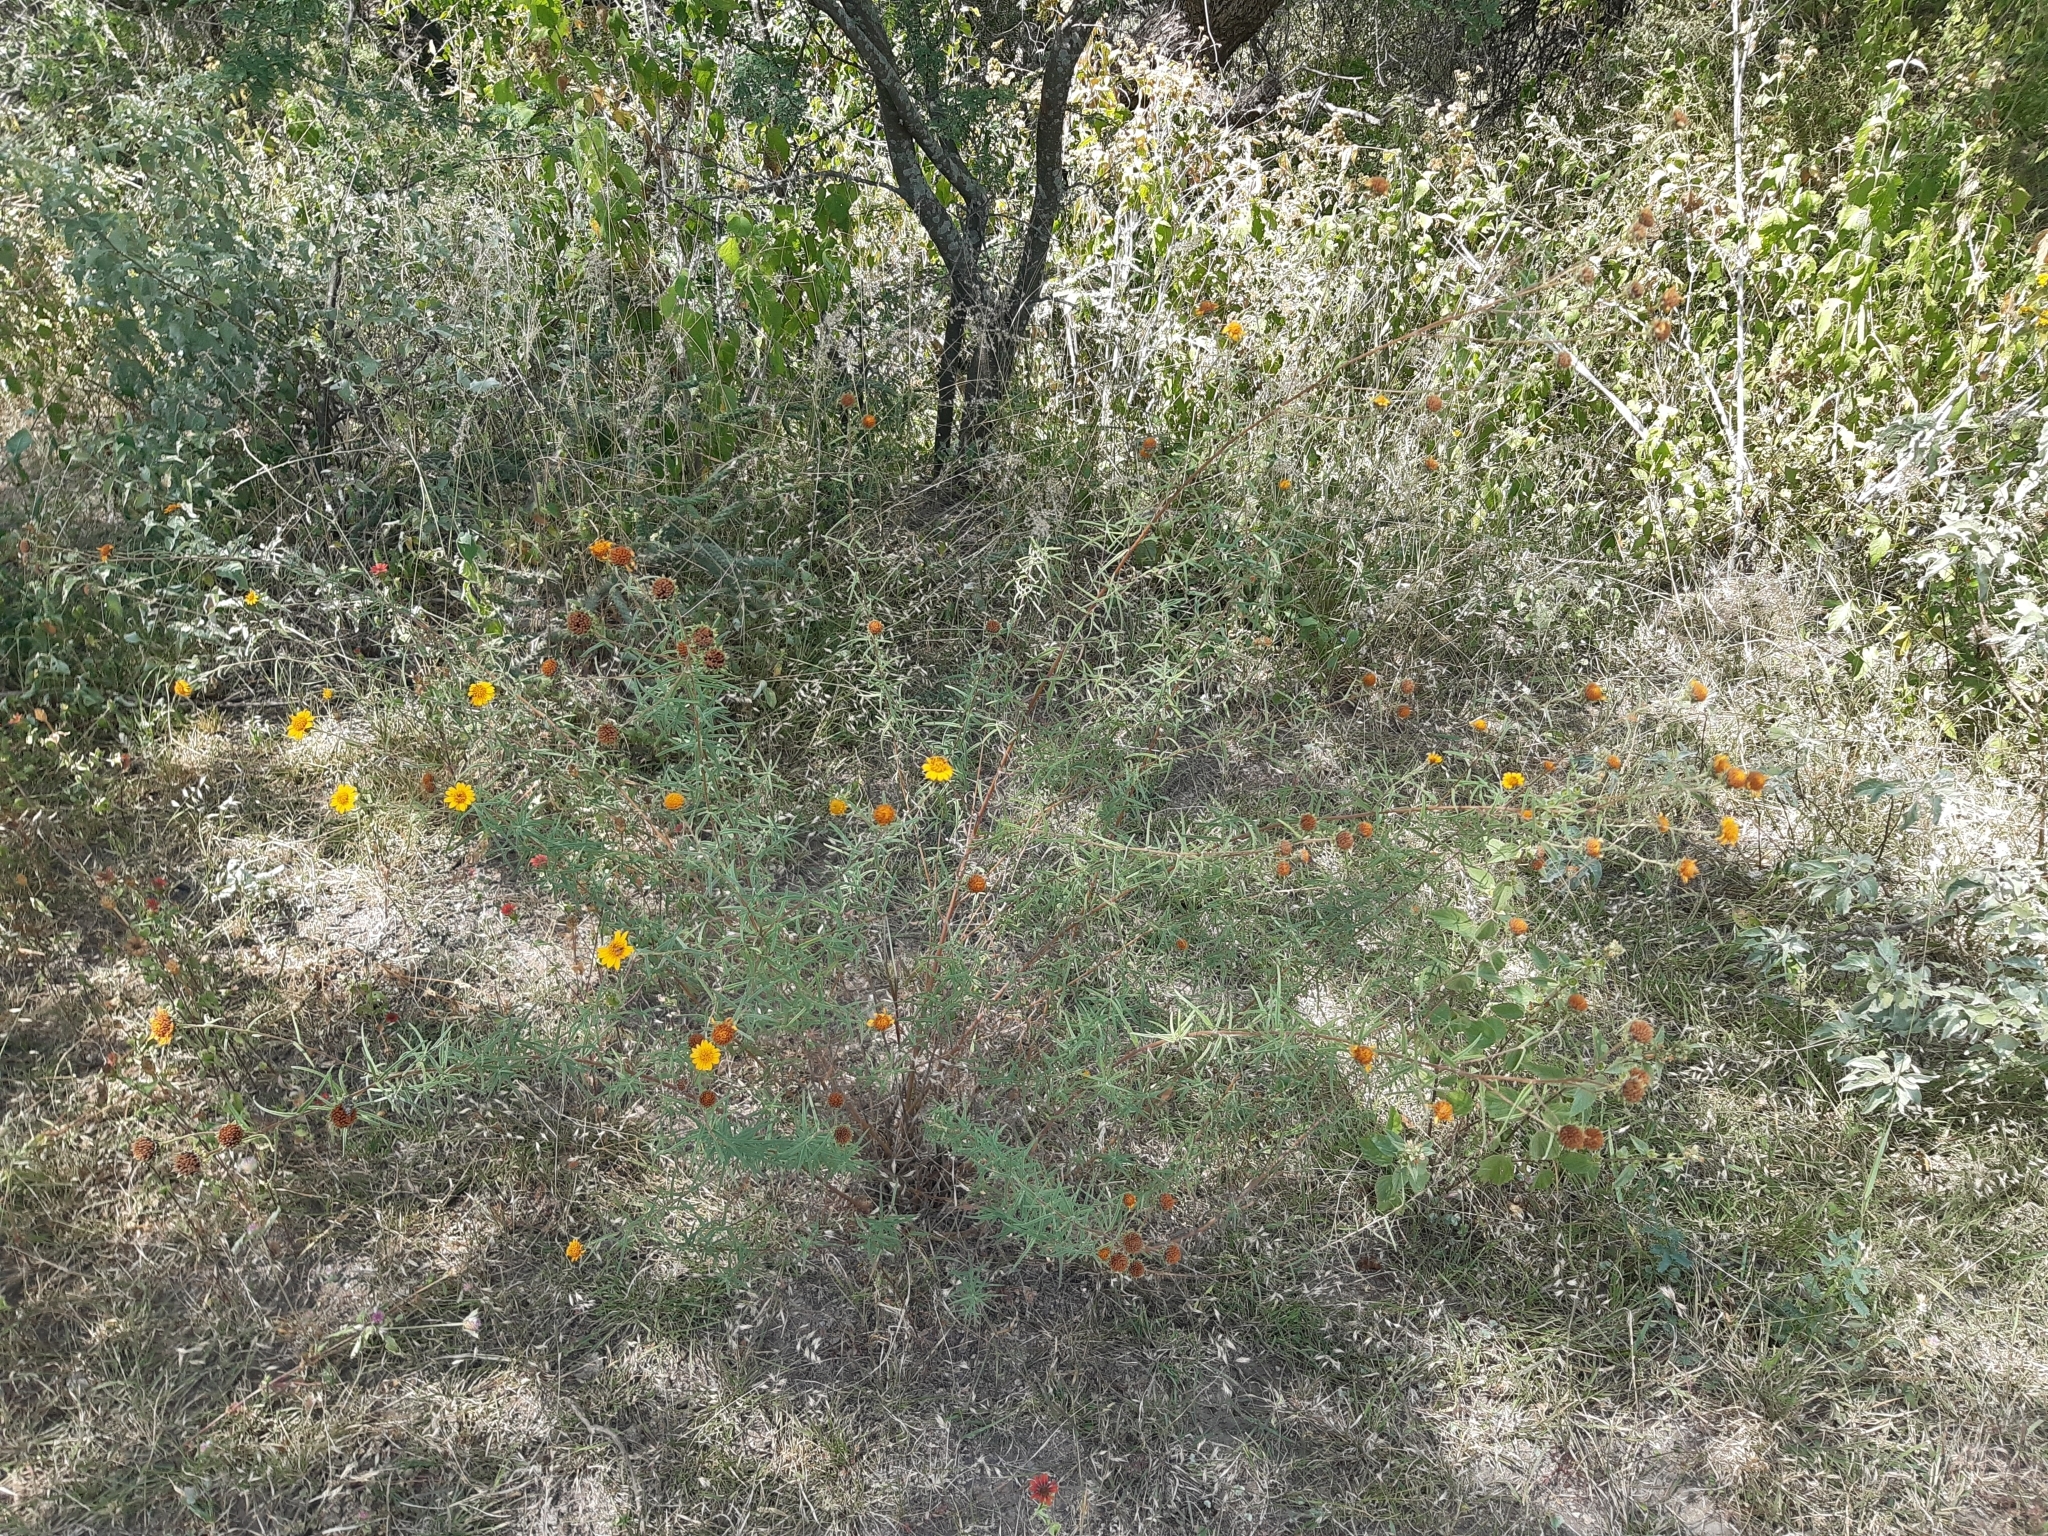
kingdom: Plantae
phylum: Tracheophyta
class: Magnoliopsida
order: Asterales
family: Asteraceae
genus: Aldama
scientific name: Aldama linearis
